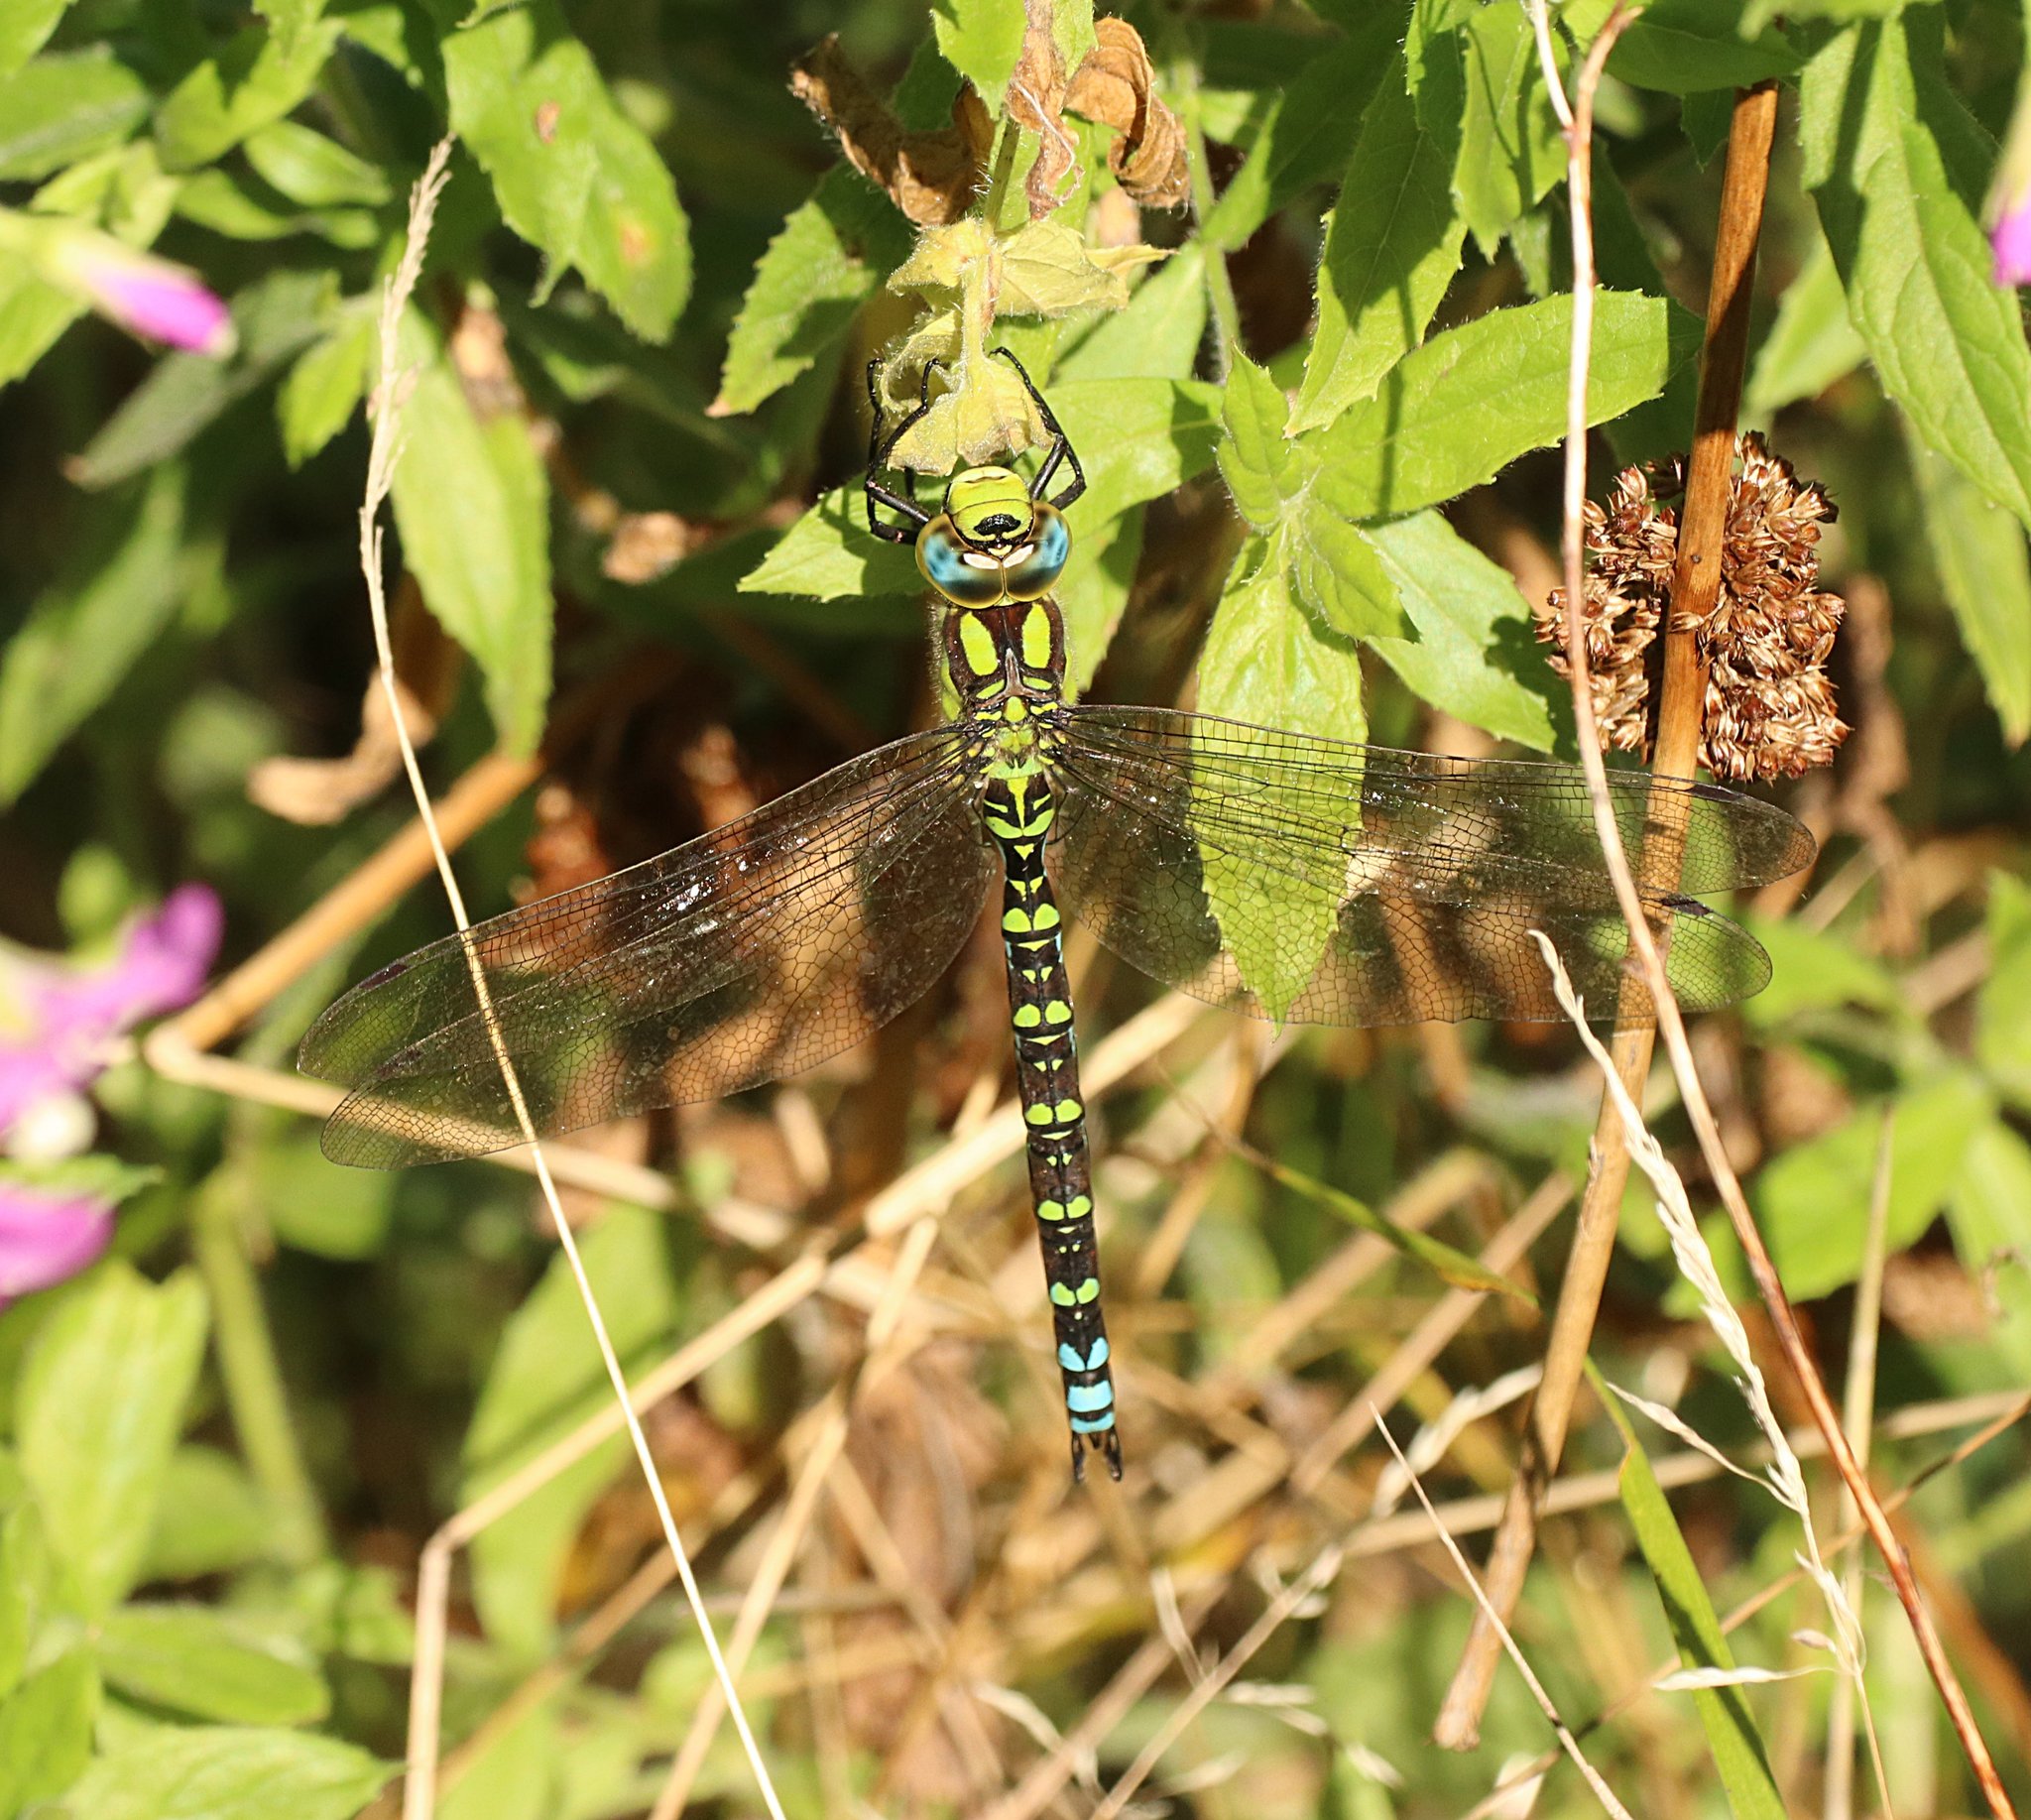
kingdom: Animalia
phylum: Arthropoda
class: Insecta
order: Odonata
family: Aeshnidae
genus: Aeshna
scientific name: Aeshna cyanea
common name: Southern hawker
